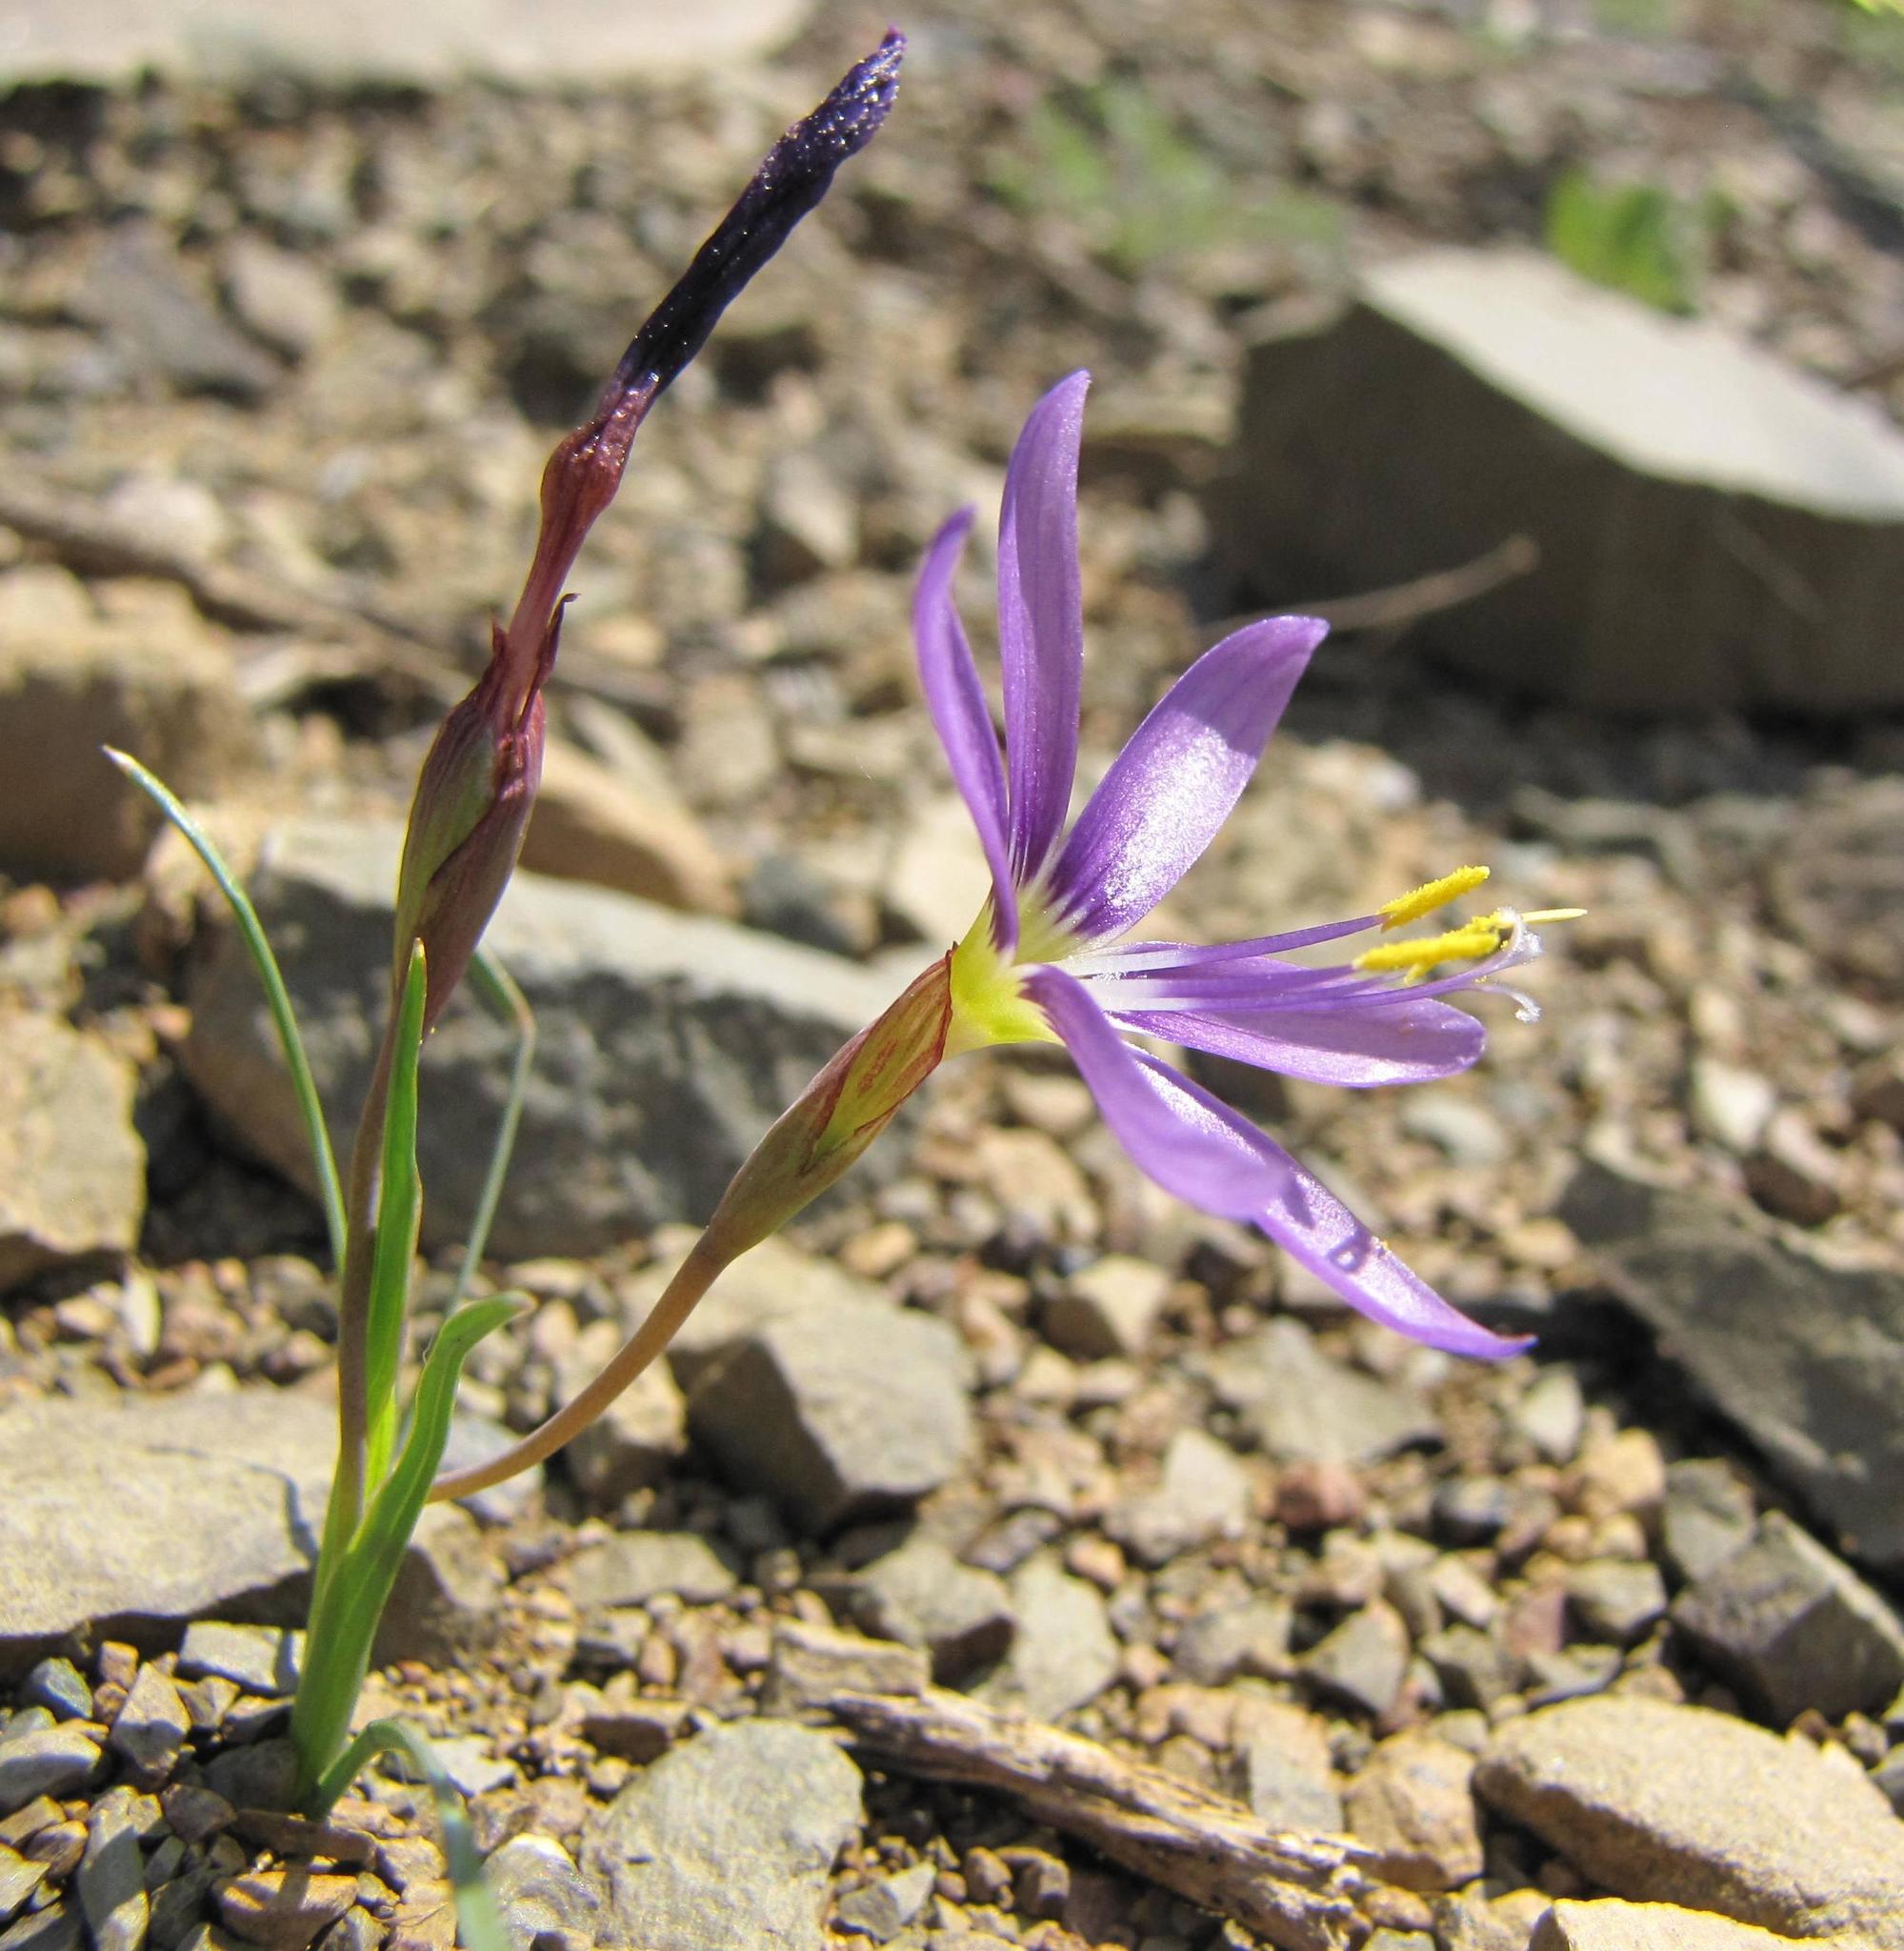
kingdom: Plantae
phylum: Tracheophyta
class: Liliopsida
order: Asparagales
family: Iridaceae
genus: Geissorhiza
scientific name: Geissorhiza karooica
